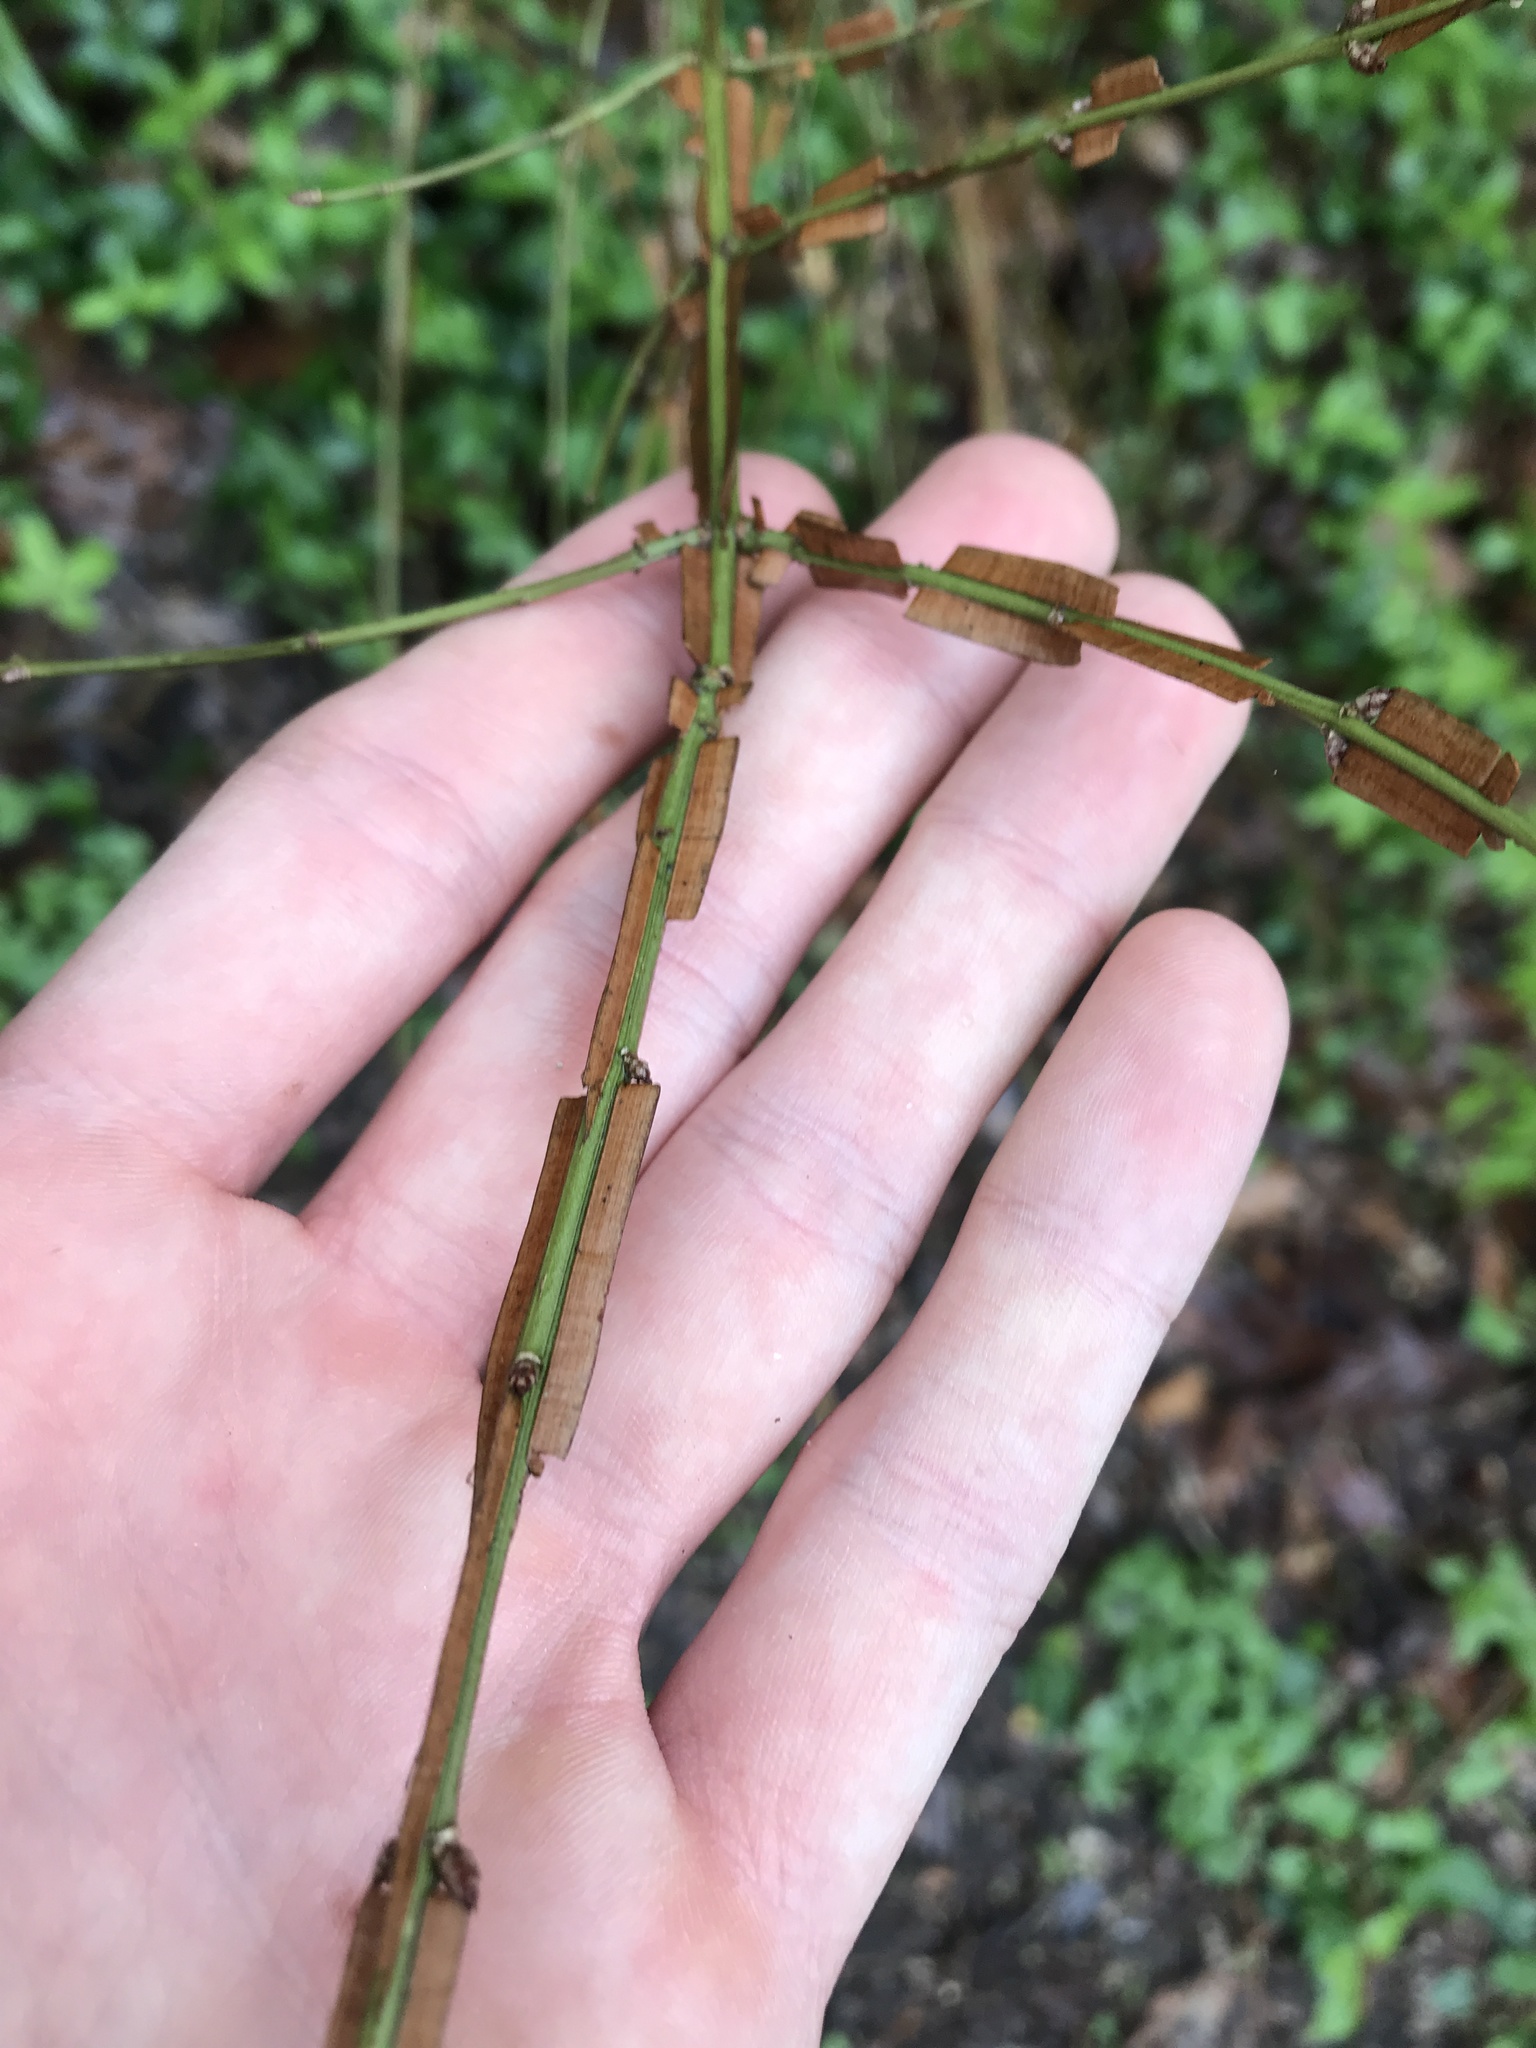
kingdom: Plantae
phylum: Tracheophyta
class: Magnoliopsida
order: Celastrales
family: Celastraceae
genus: Euonymus
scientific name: Euonymus alatus
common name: Winged euonymus
